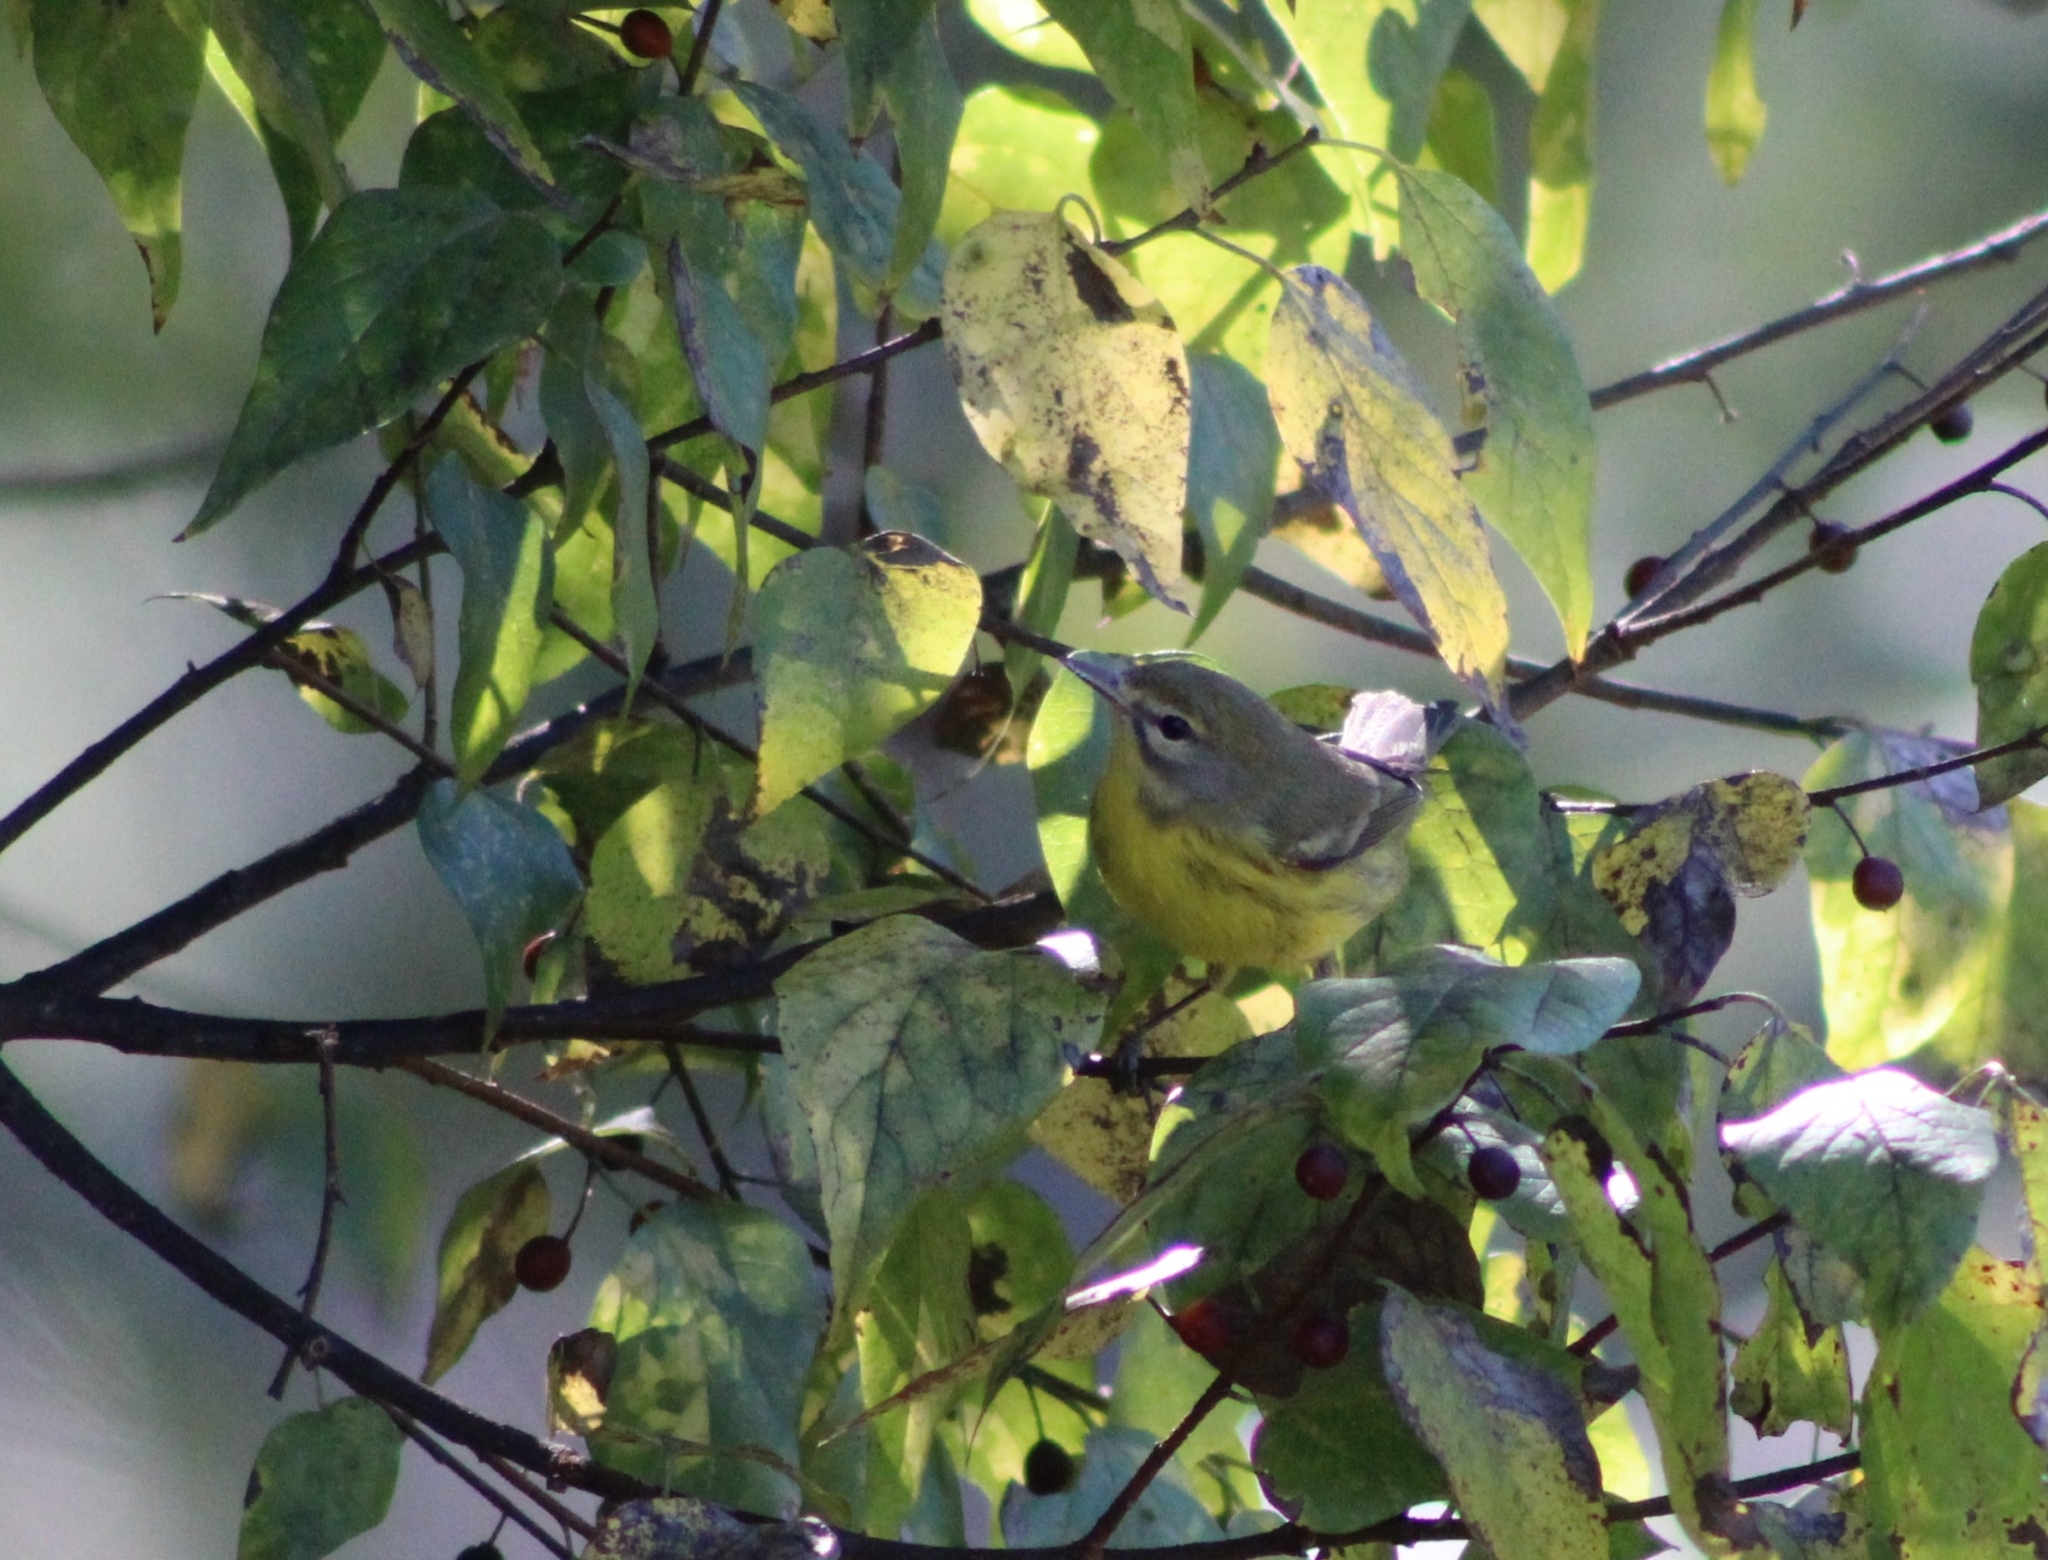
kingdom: Animalia
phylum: Chordata
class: Aves
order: Passeriformes
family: Parulidae
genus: Setophaga
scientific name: Setophaga discolor
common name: Prairie warbler
